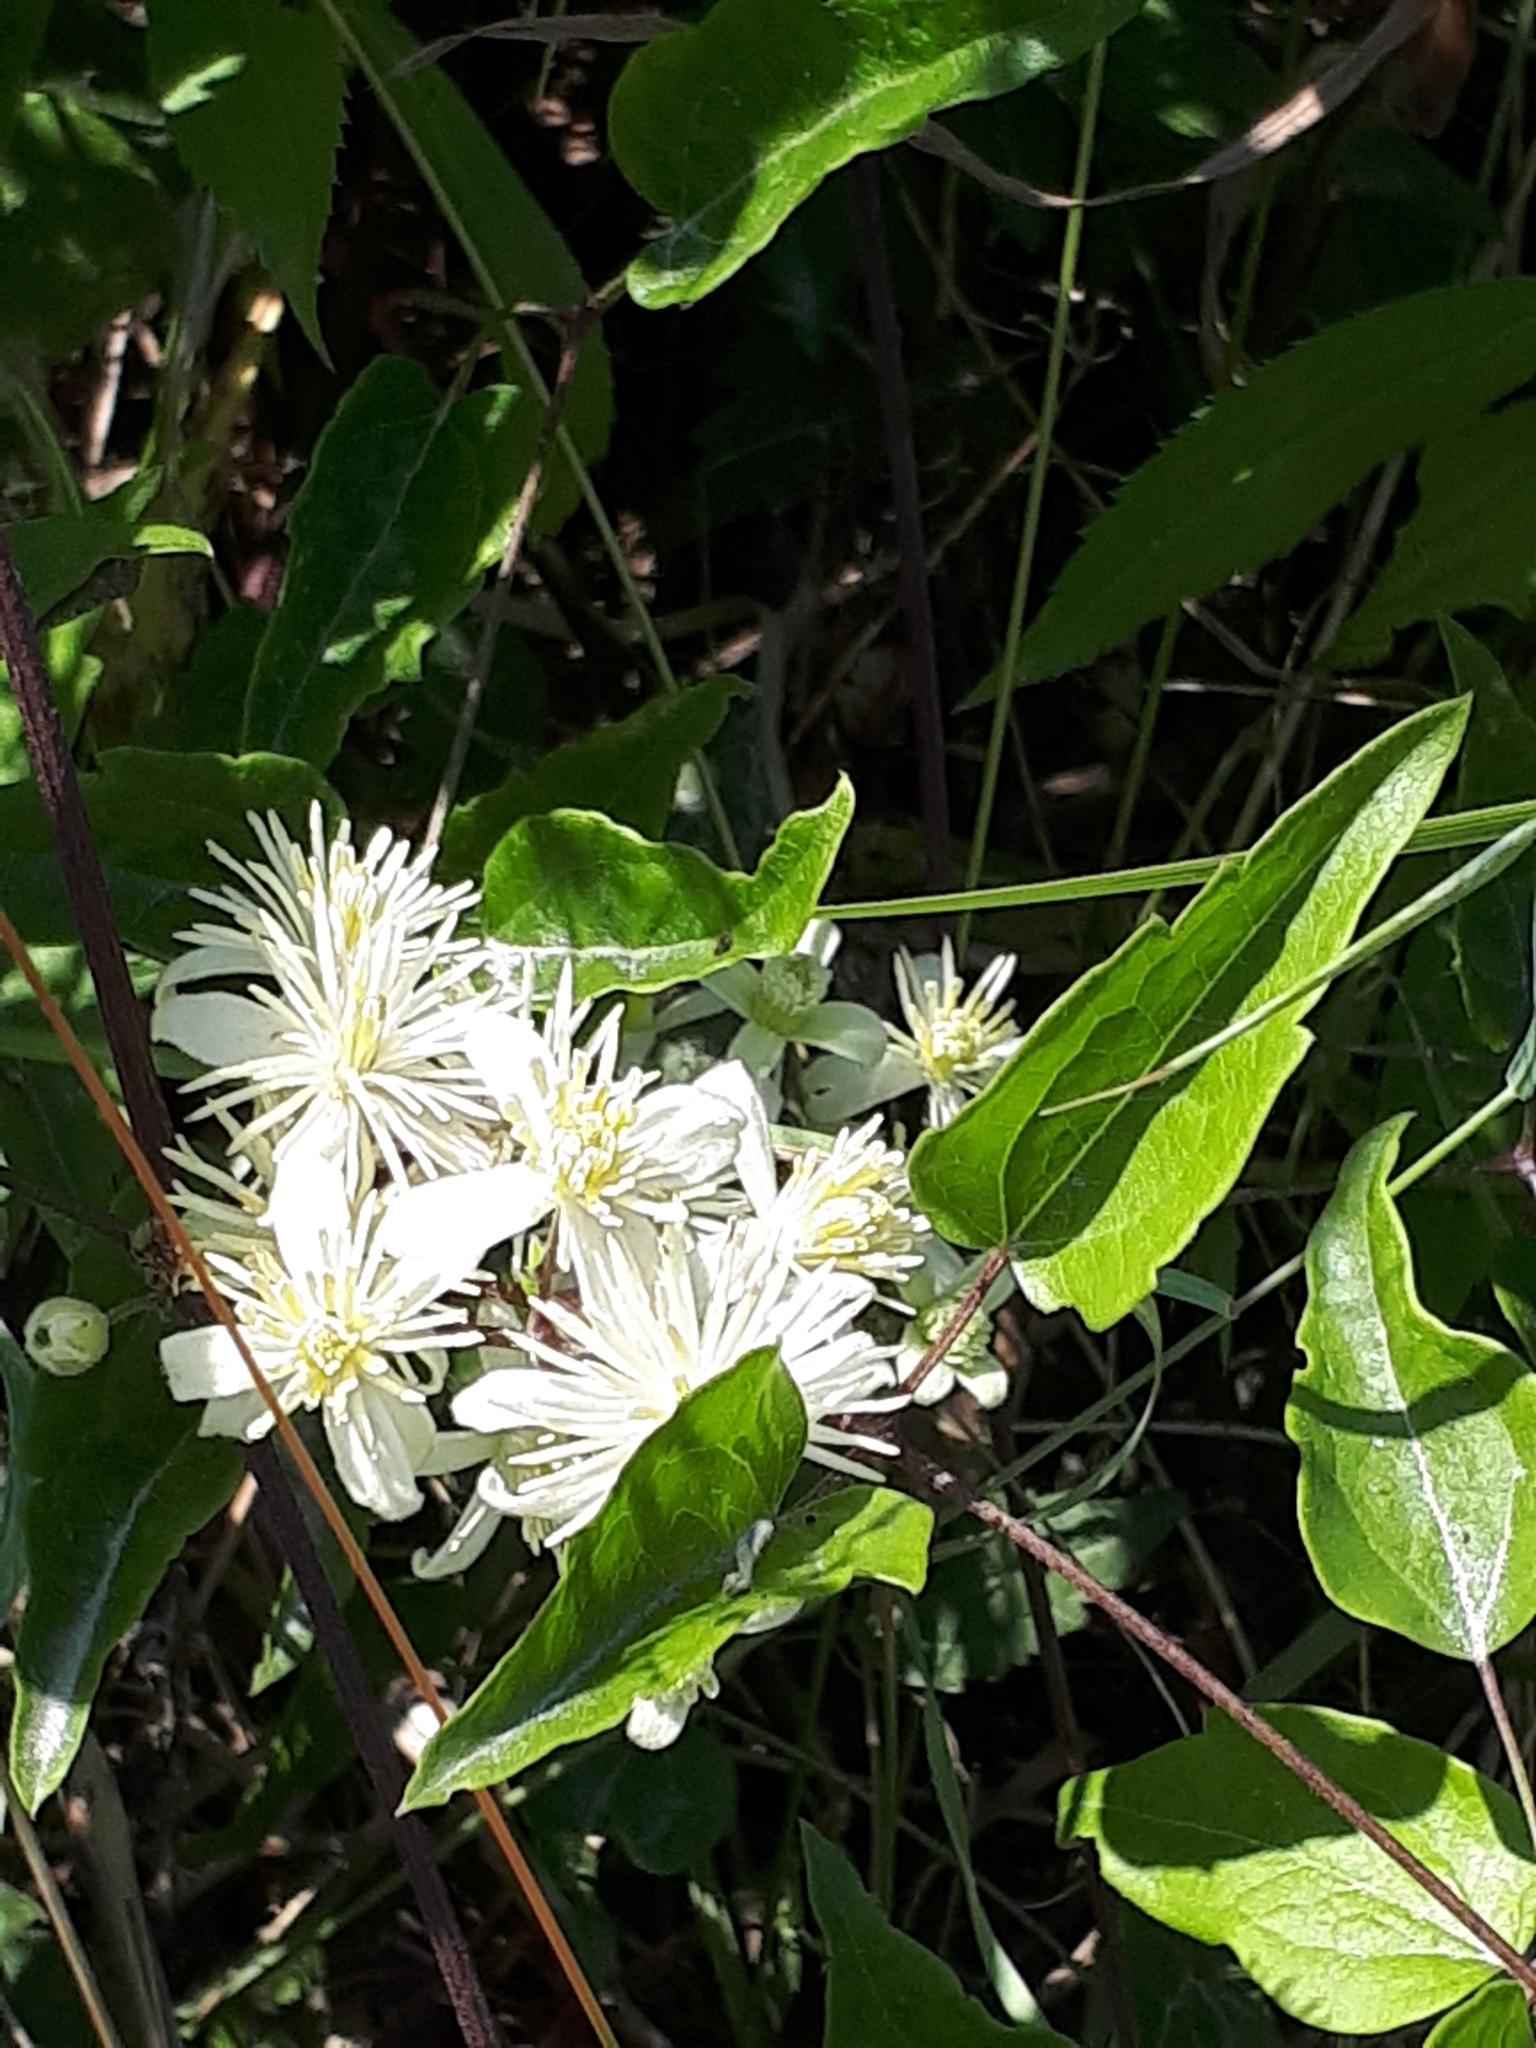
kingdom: Plantae
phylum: Tracheophyta
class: Magnoliopsida
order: Ranunculales
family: Ranunculaceae
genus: Clematis
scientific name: Clematis vitalba
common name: Evergreen clematis
